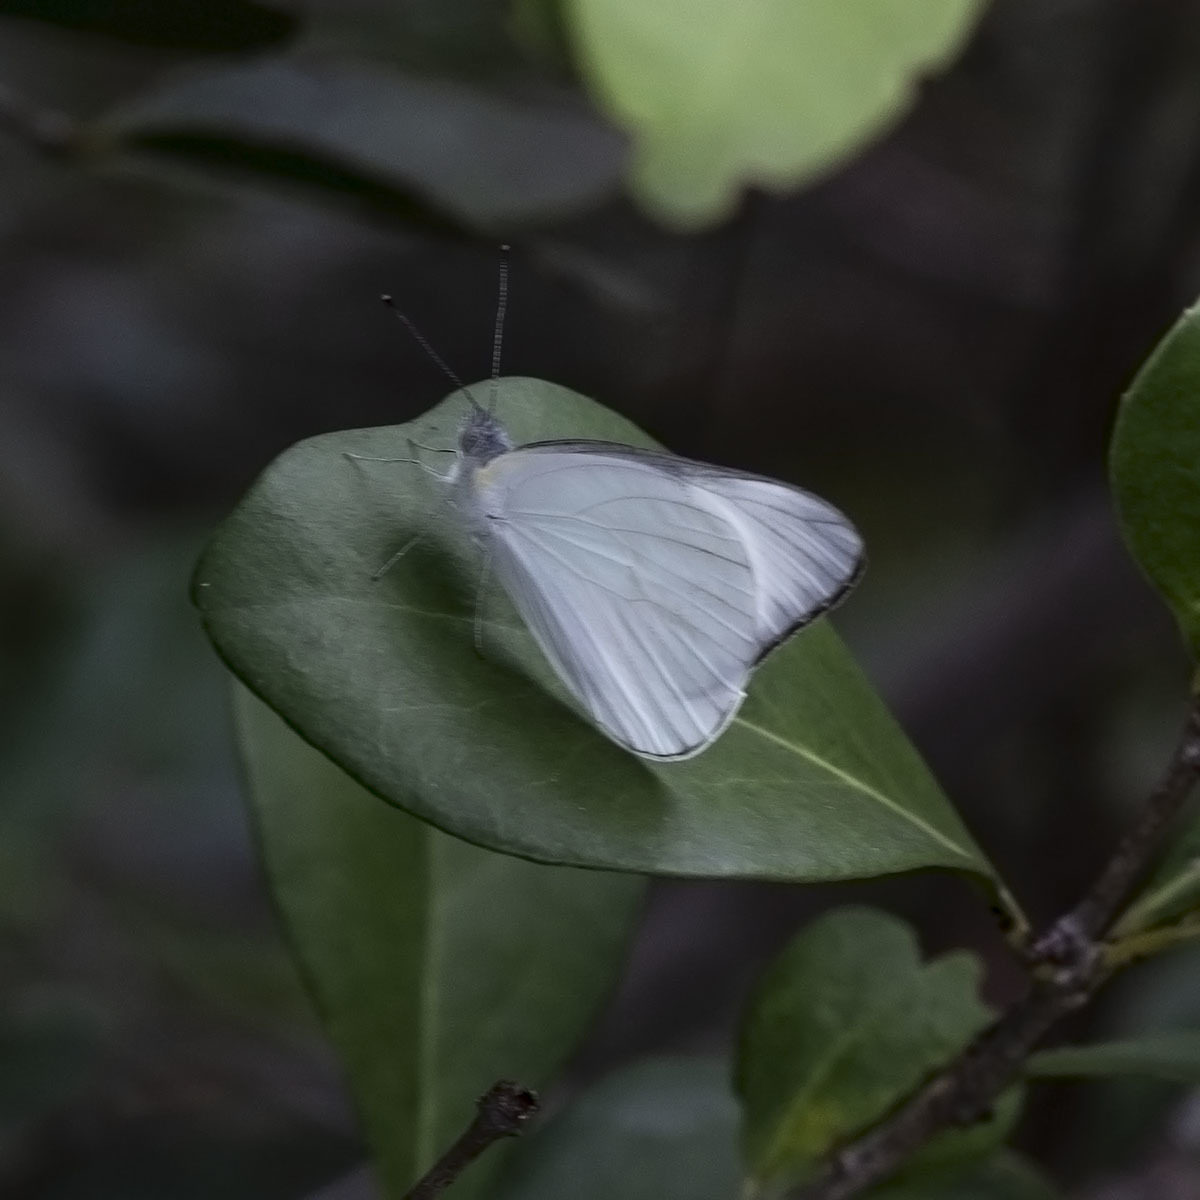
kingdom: Animalia
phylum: Arthropoda
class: Insecta
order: Lepidoptera
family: Pieridae
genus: Appias
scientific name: Appias albina
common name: Common albatross
